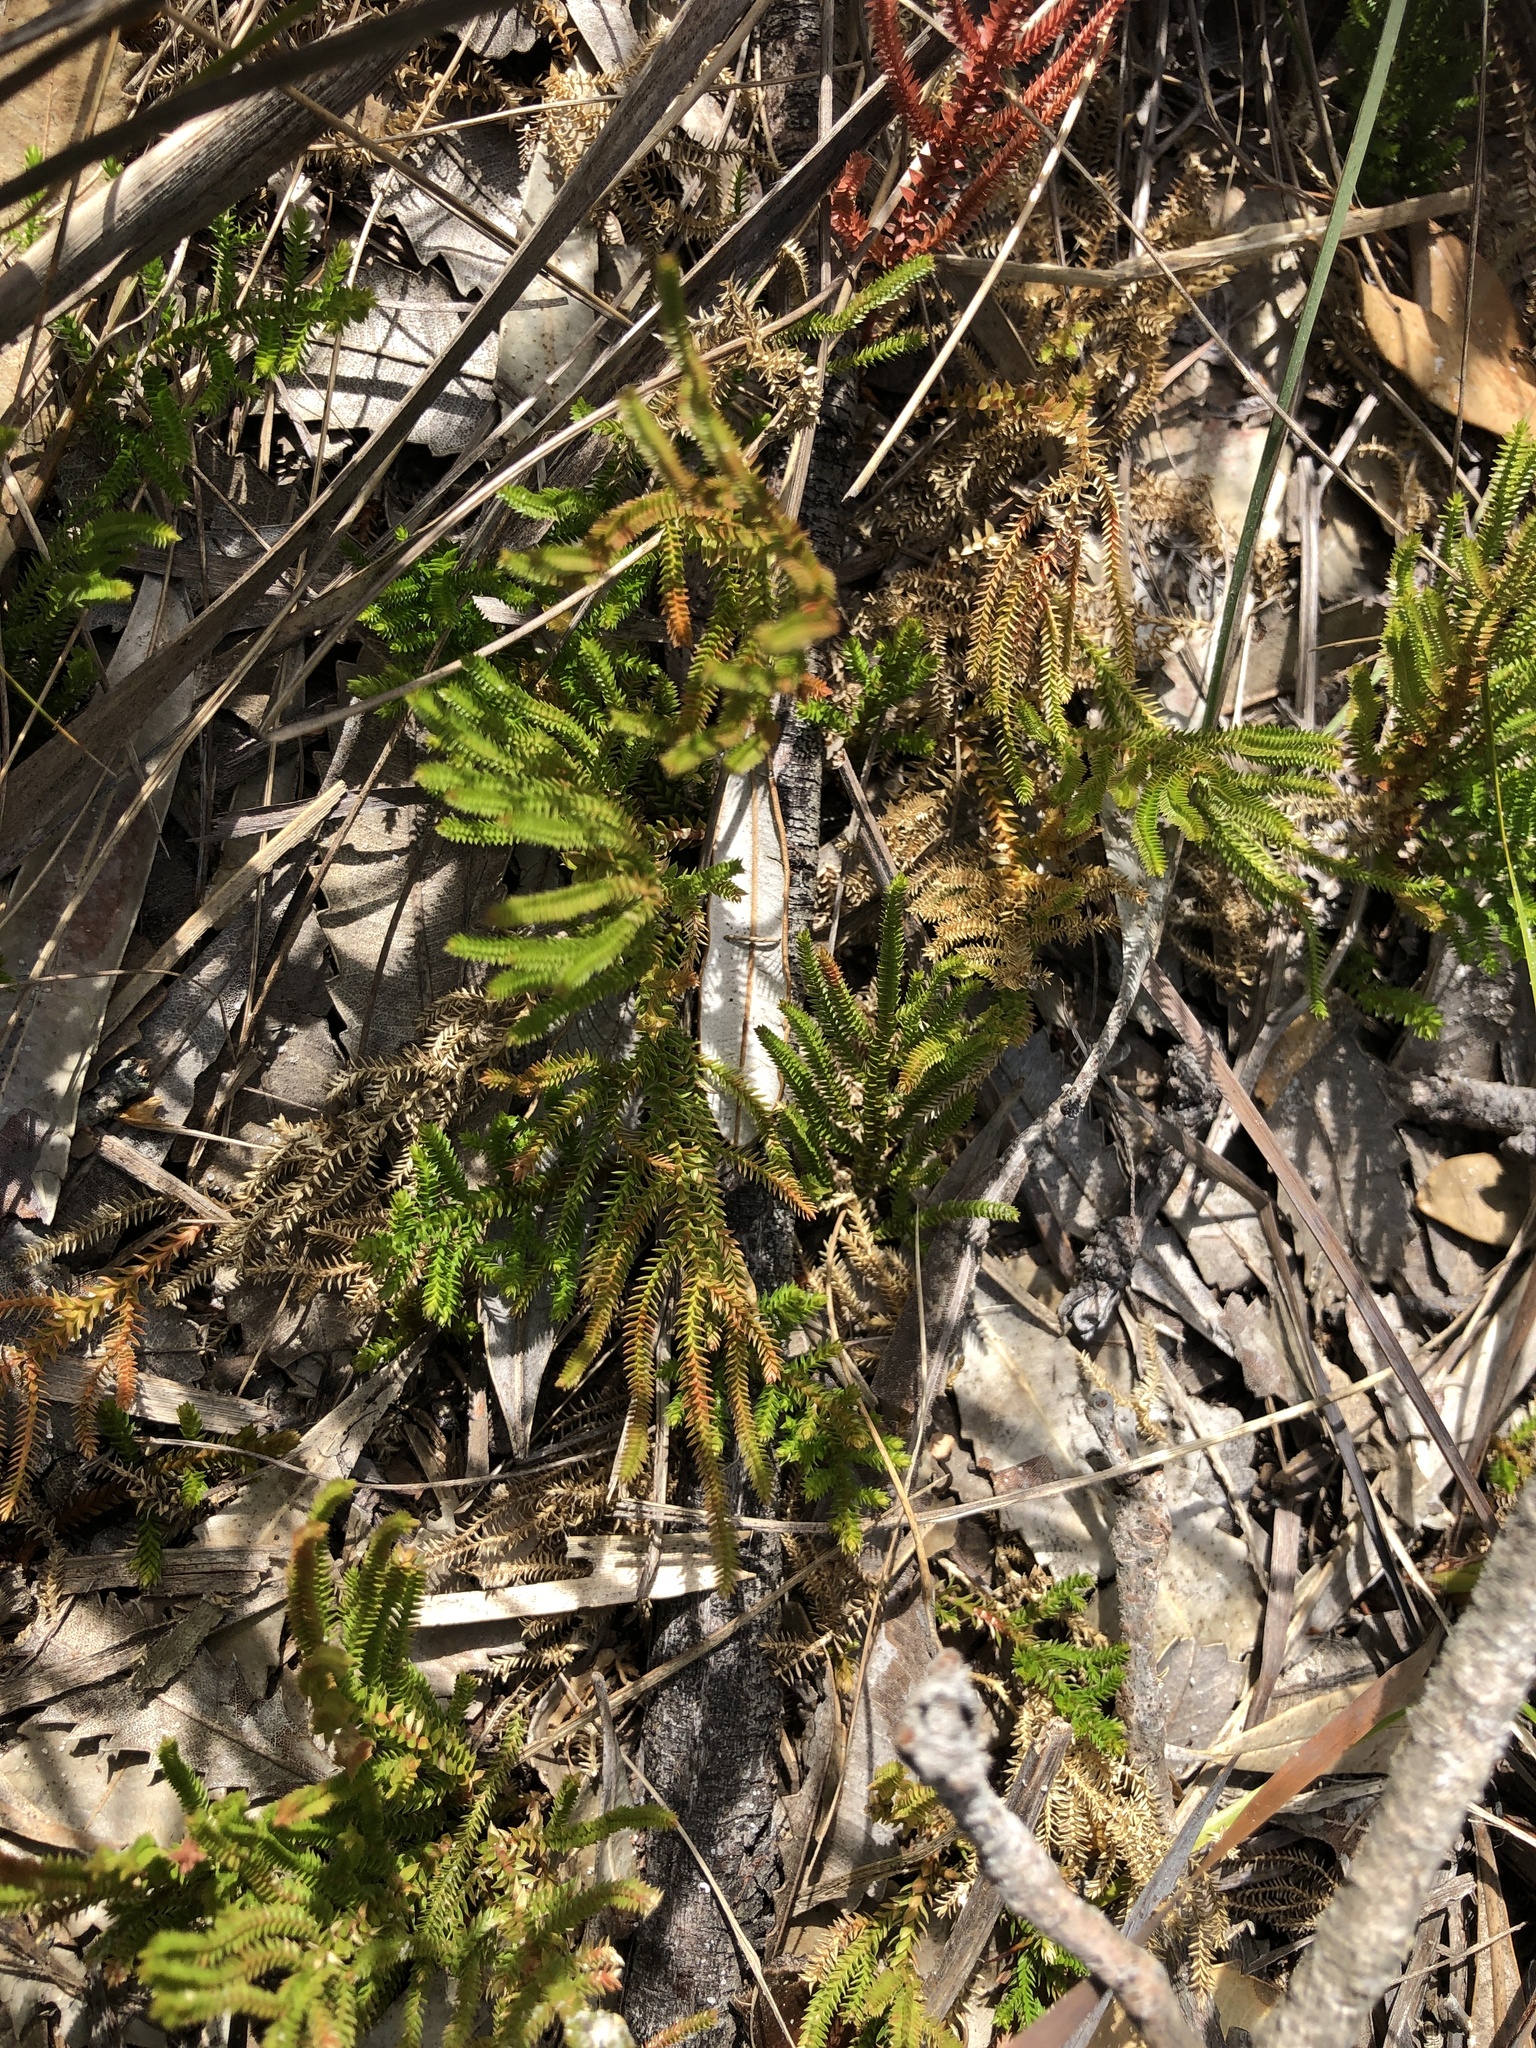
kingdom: Plantae
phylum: Tracheophyta
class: Lycopodiopsida
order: Selaginellales
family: Selaginellaceae
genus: Selaginella
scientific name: Selaginella uliginosa
